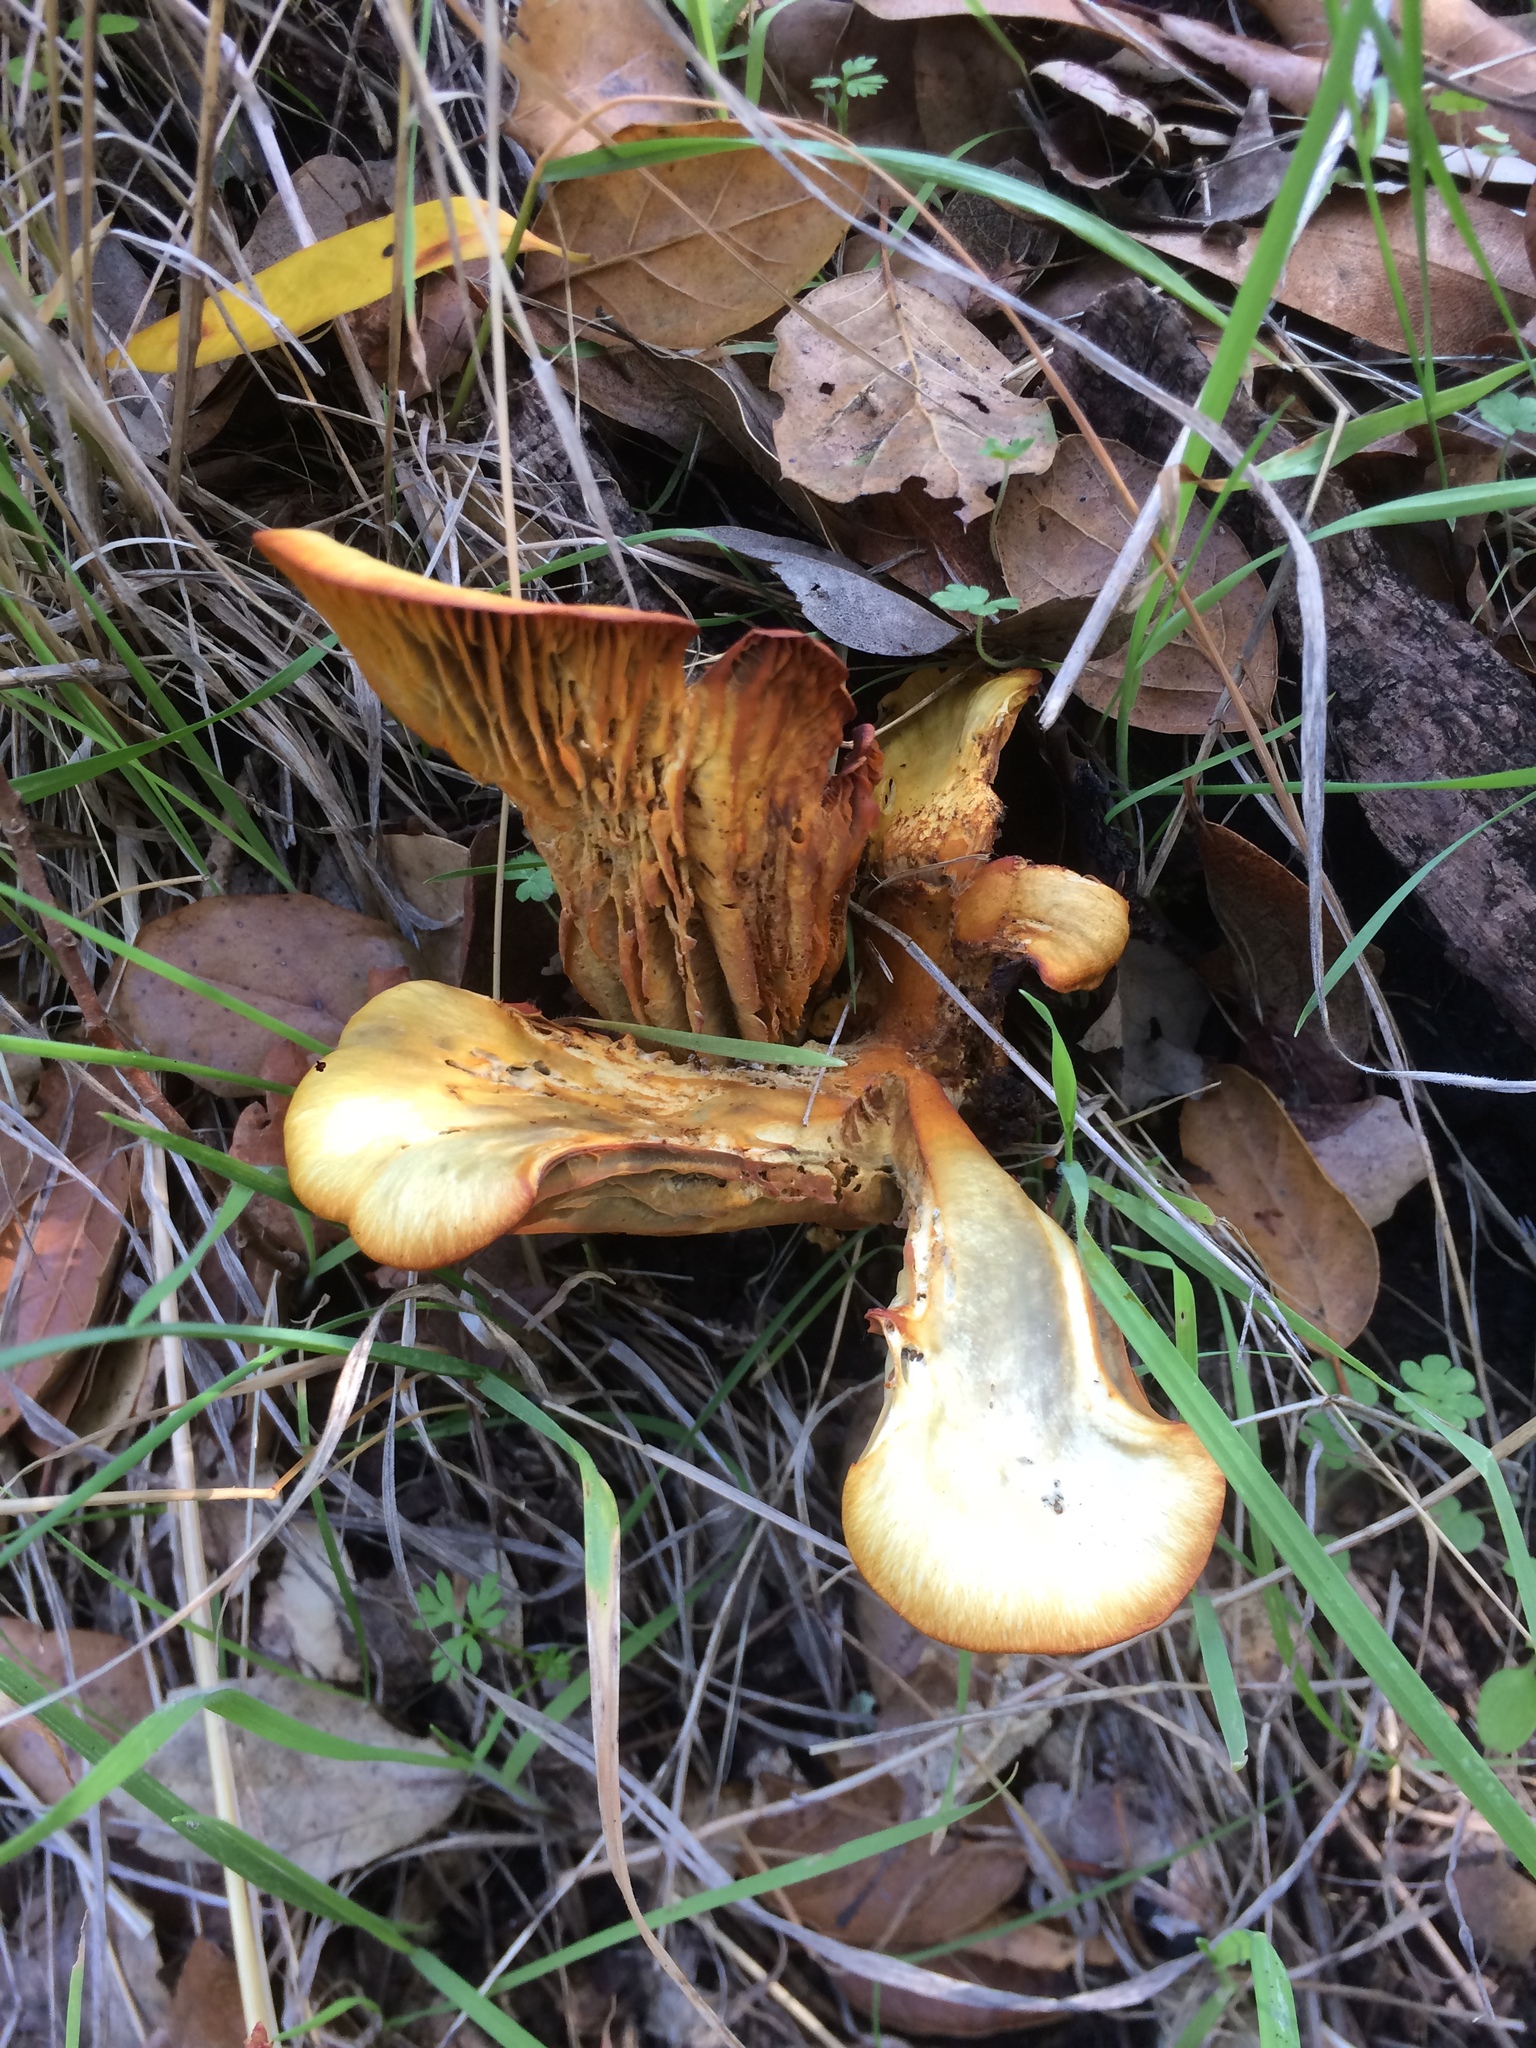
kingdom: Fungi
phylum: Basidiomycota
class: Agaricomycetes
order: Agaricales
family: Omphalotaceae
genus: Omphalotus
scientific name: Omphalotus olivascens
